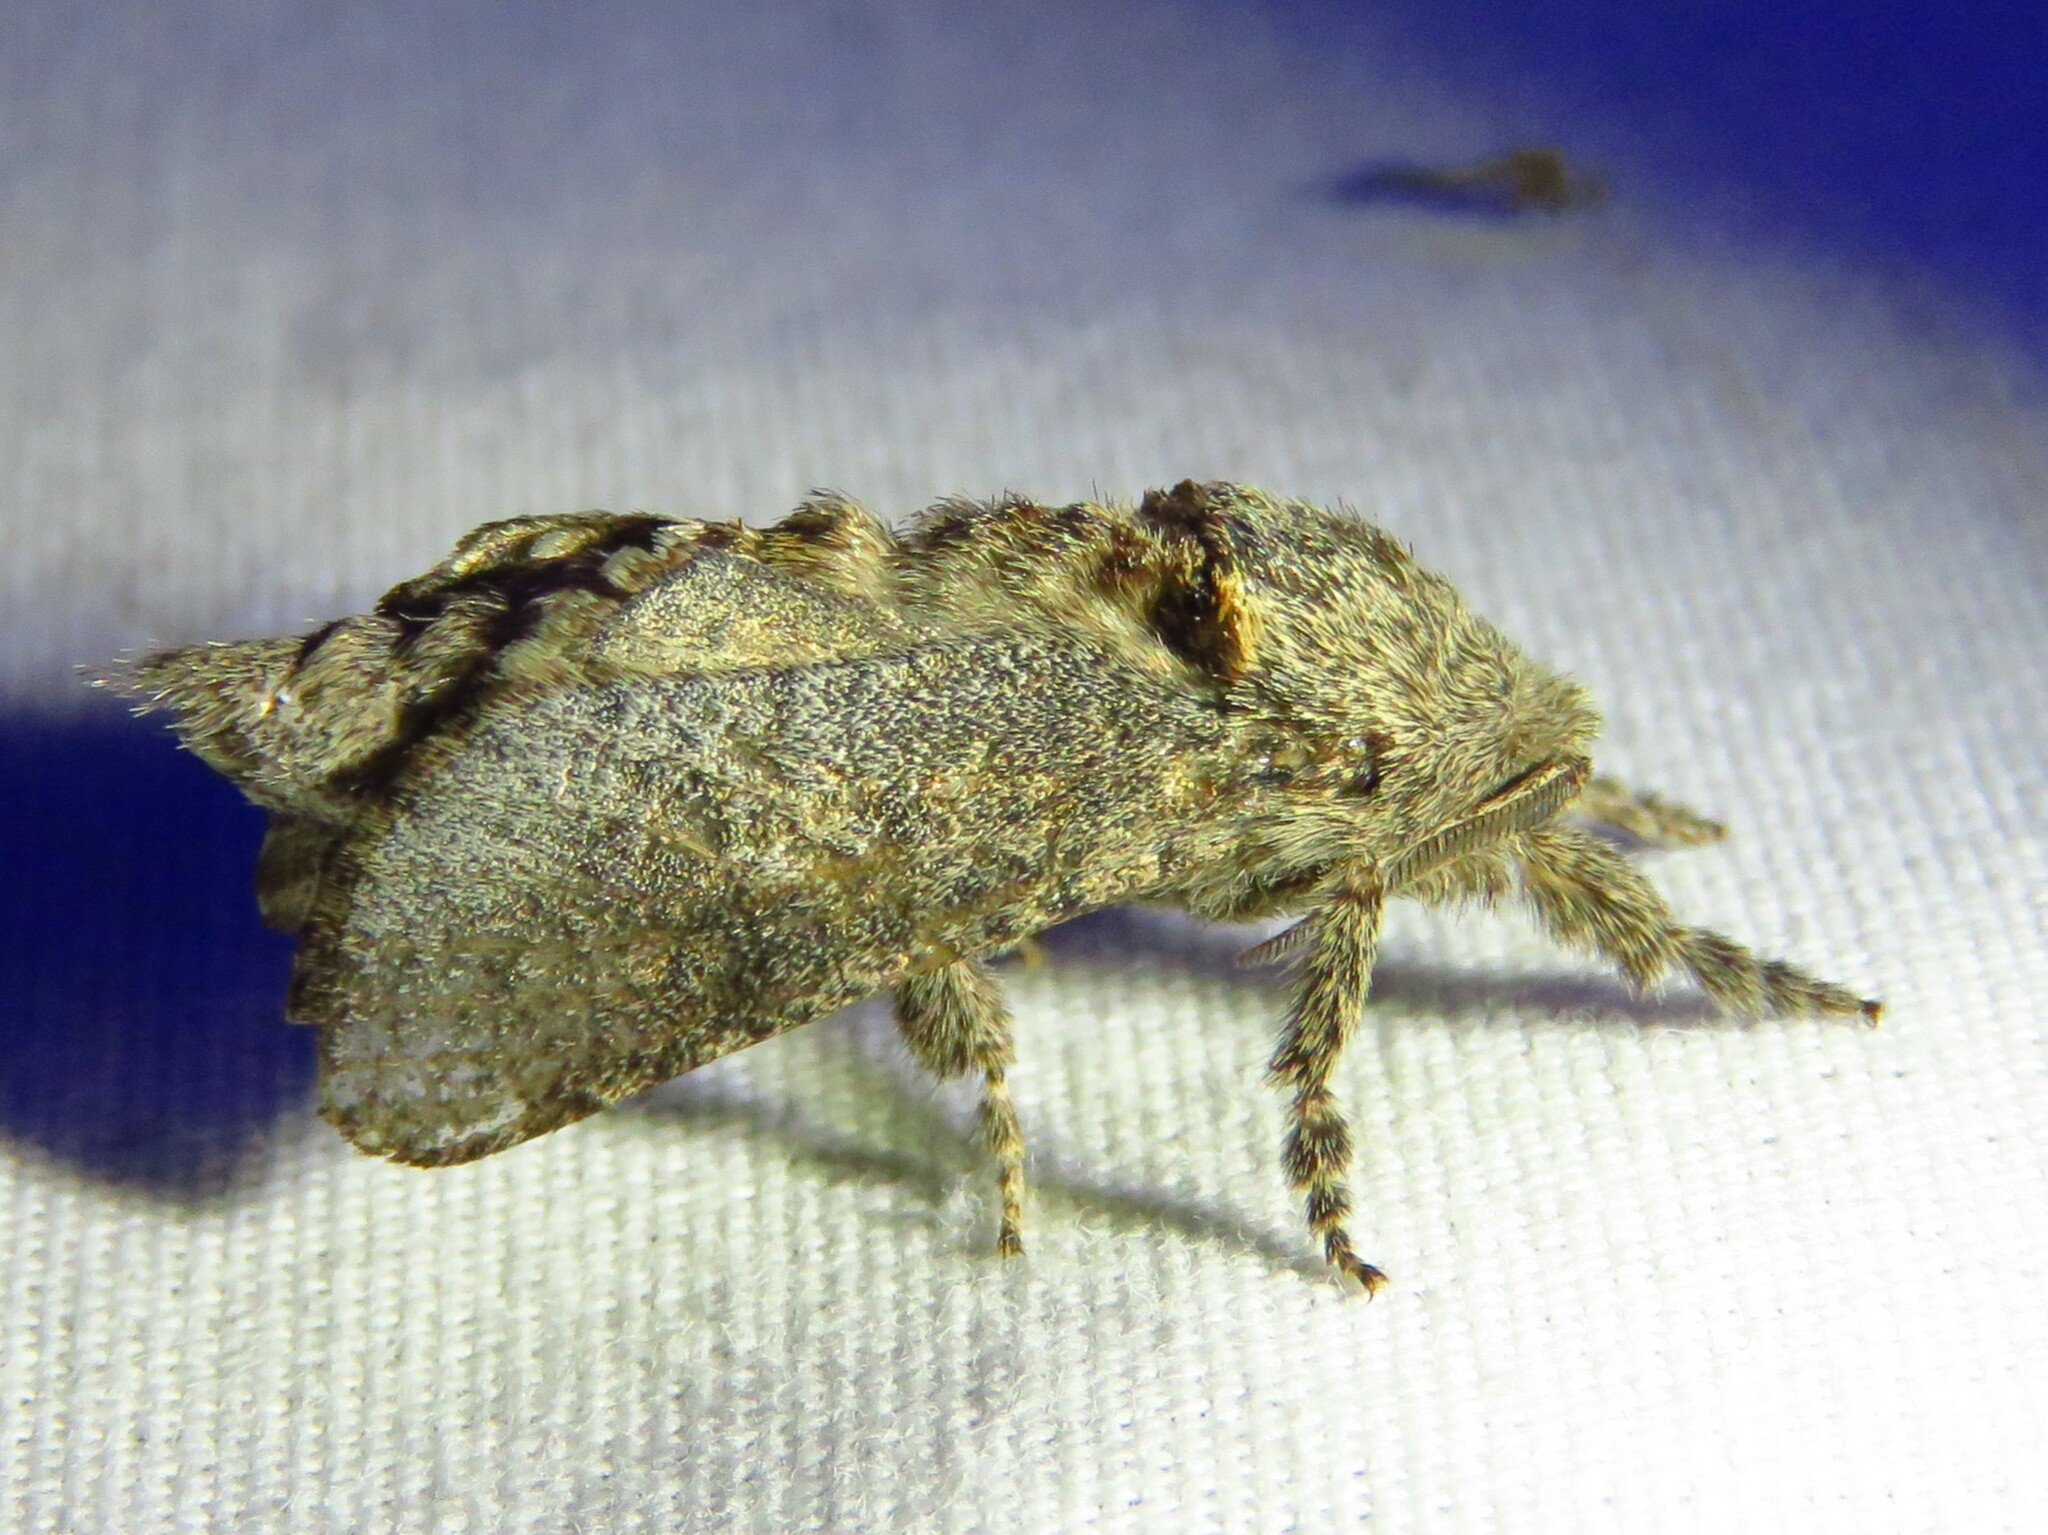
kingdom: Animalia
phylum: Arthropoda
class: Insecta
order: Lepidoptera
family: Cossidae
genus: Givira
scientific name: Givira arbeloides
